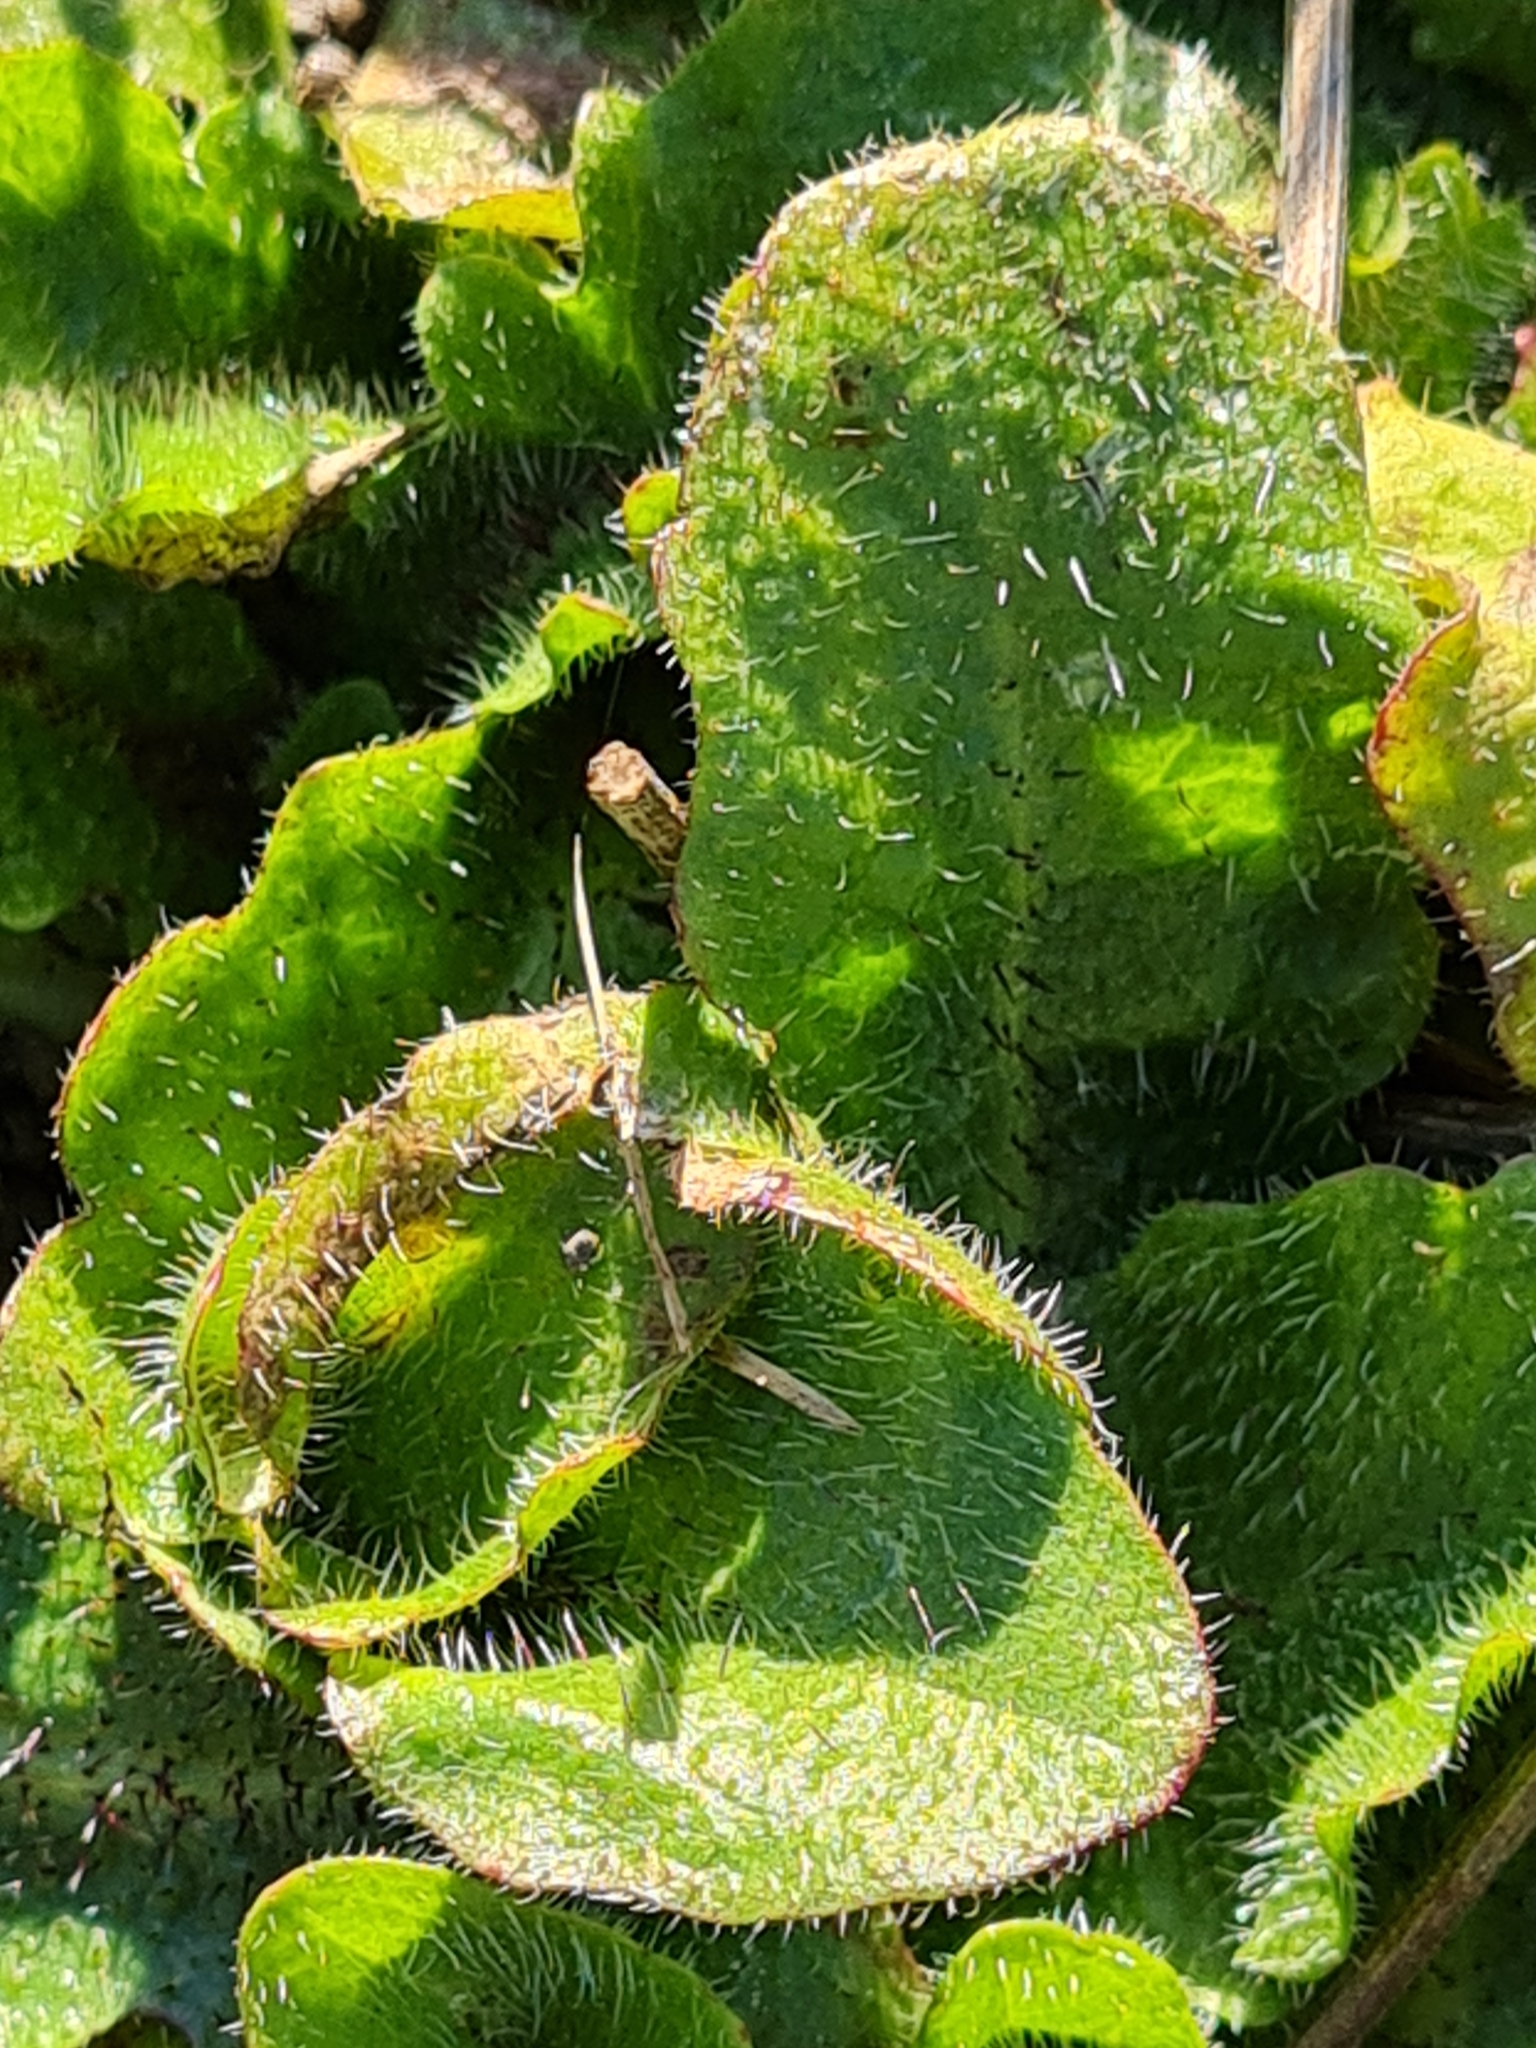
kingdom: Plantae
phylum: Tracheophyta
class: Magnoliopsida
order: Asterales
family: Asteraceae
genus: Hypochaeris
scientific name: Hypochaeris radicata
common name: Flatweed
